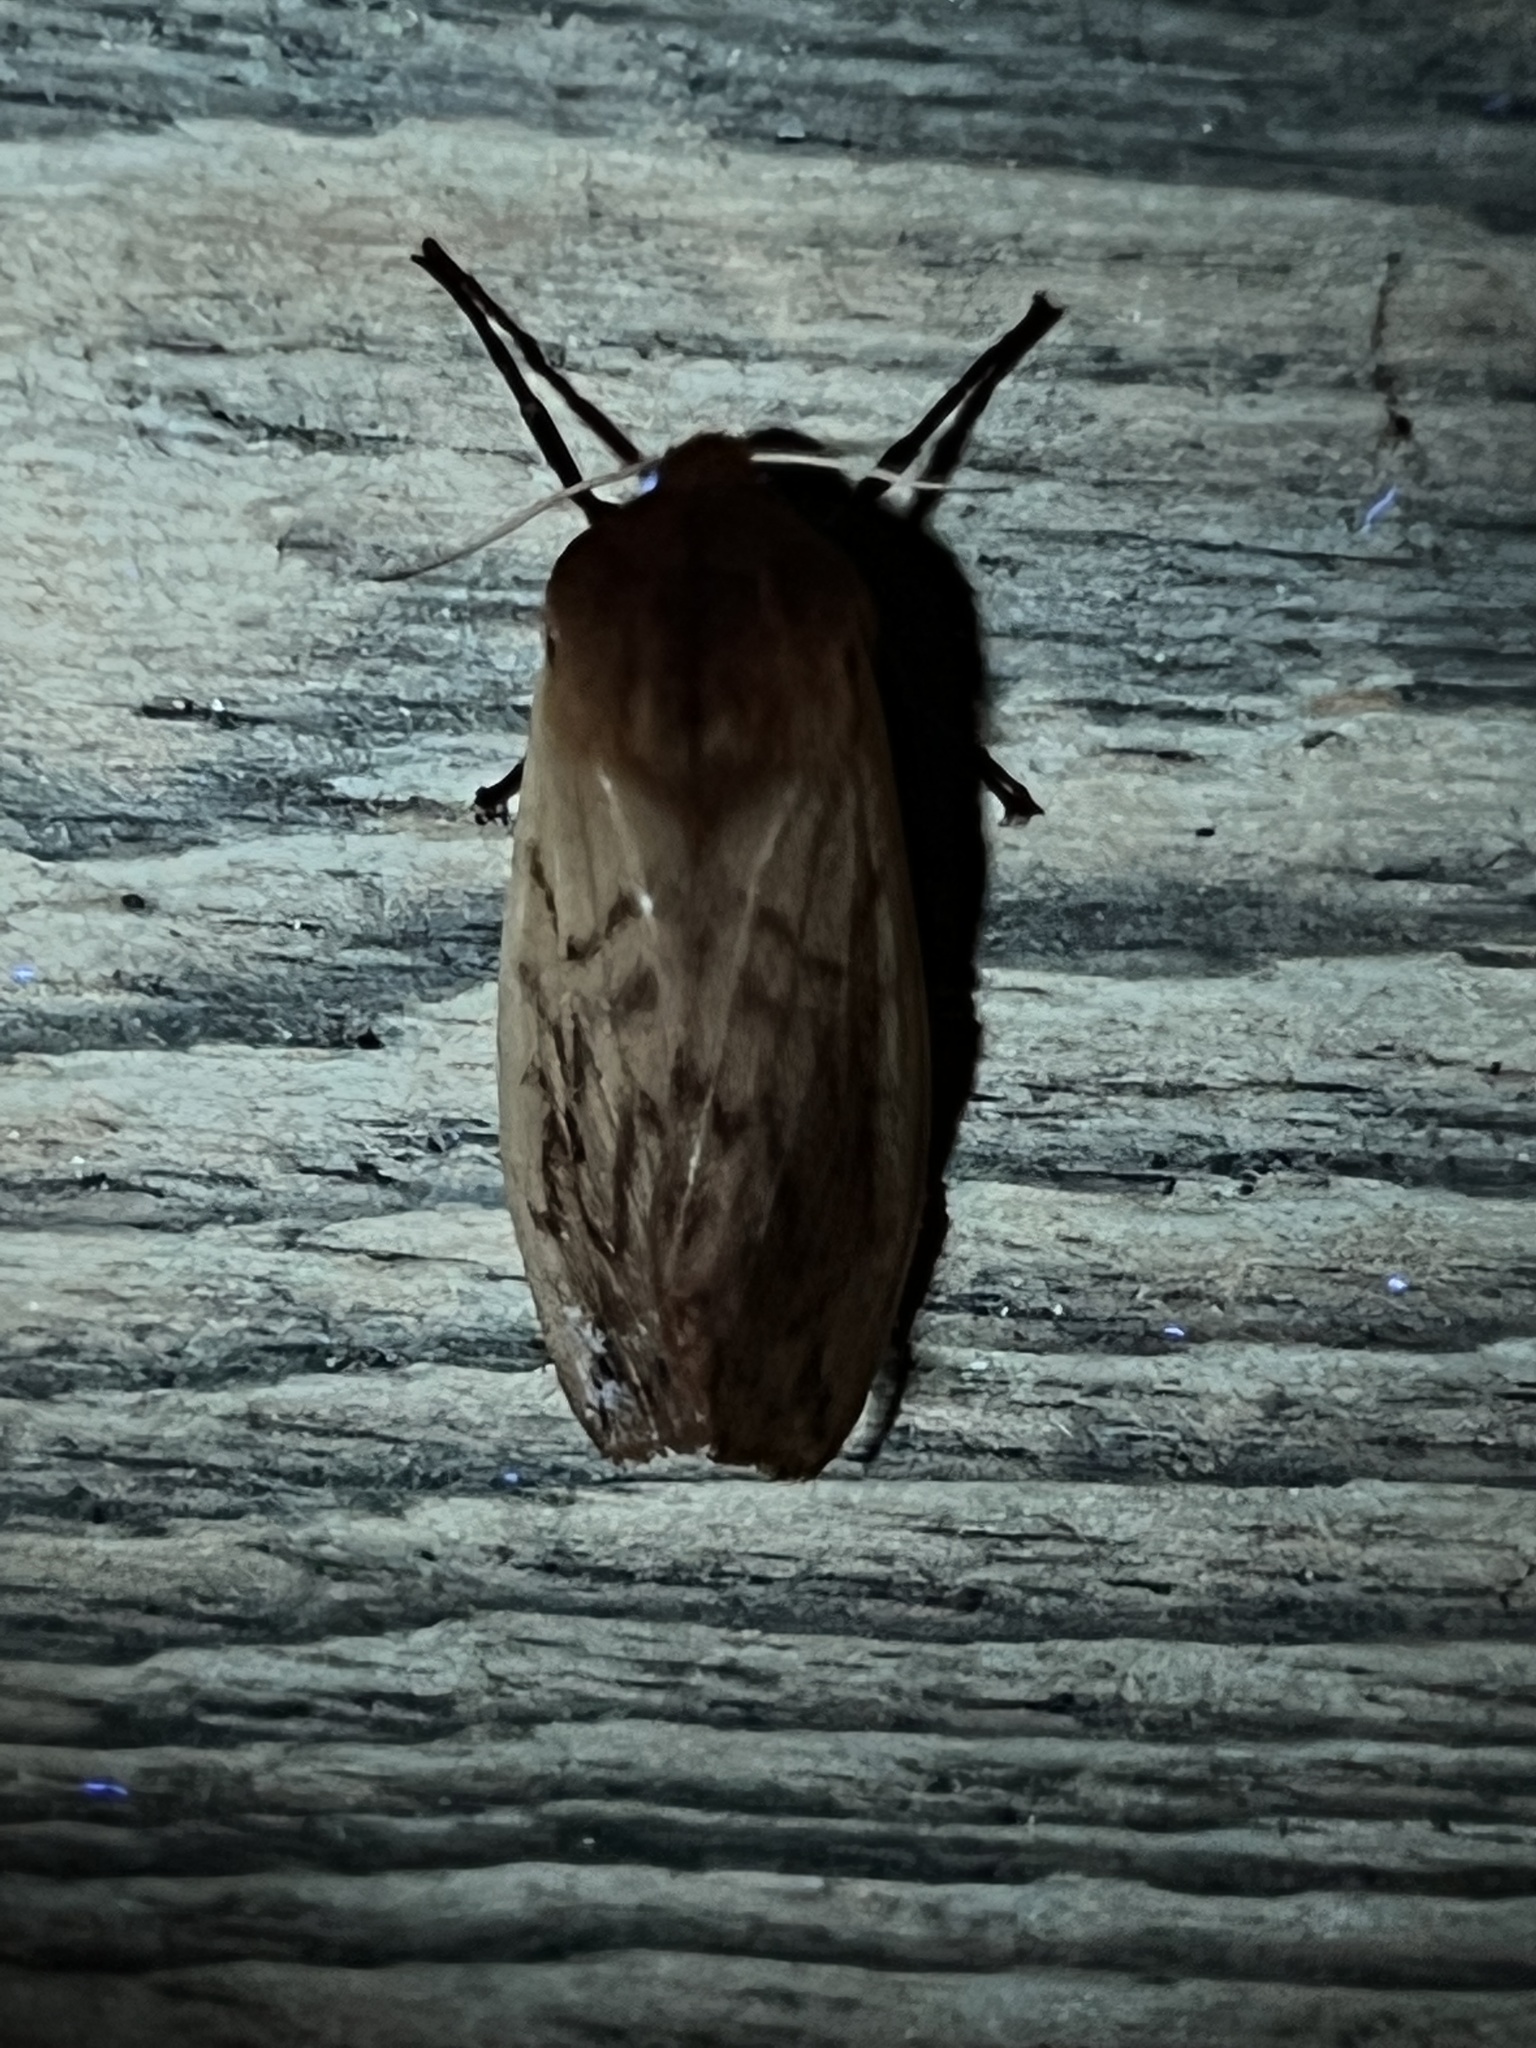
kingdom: Animalia
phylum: Arthropoda
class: Insecta
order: Lepidoptera
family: Erebidae
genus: Pyrrharctia
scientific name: Pyrrharctia isabella
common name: Isabella tiger moth
